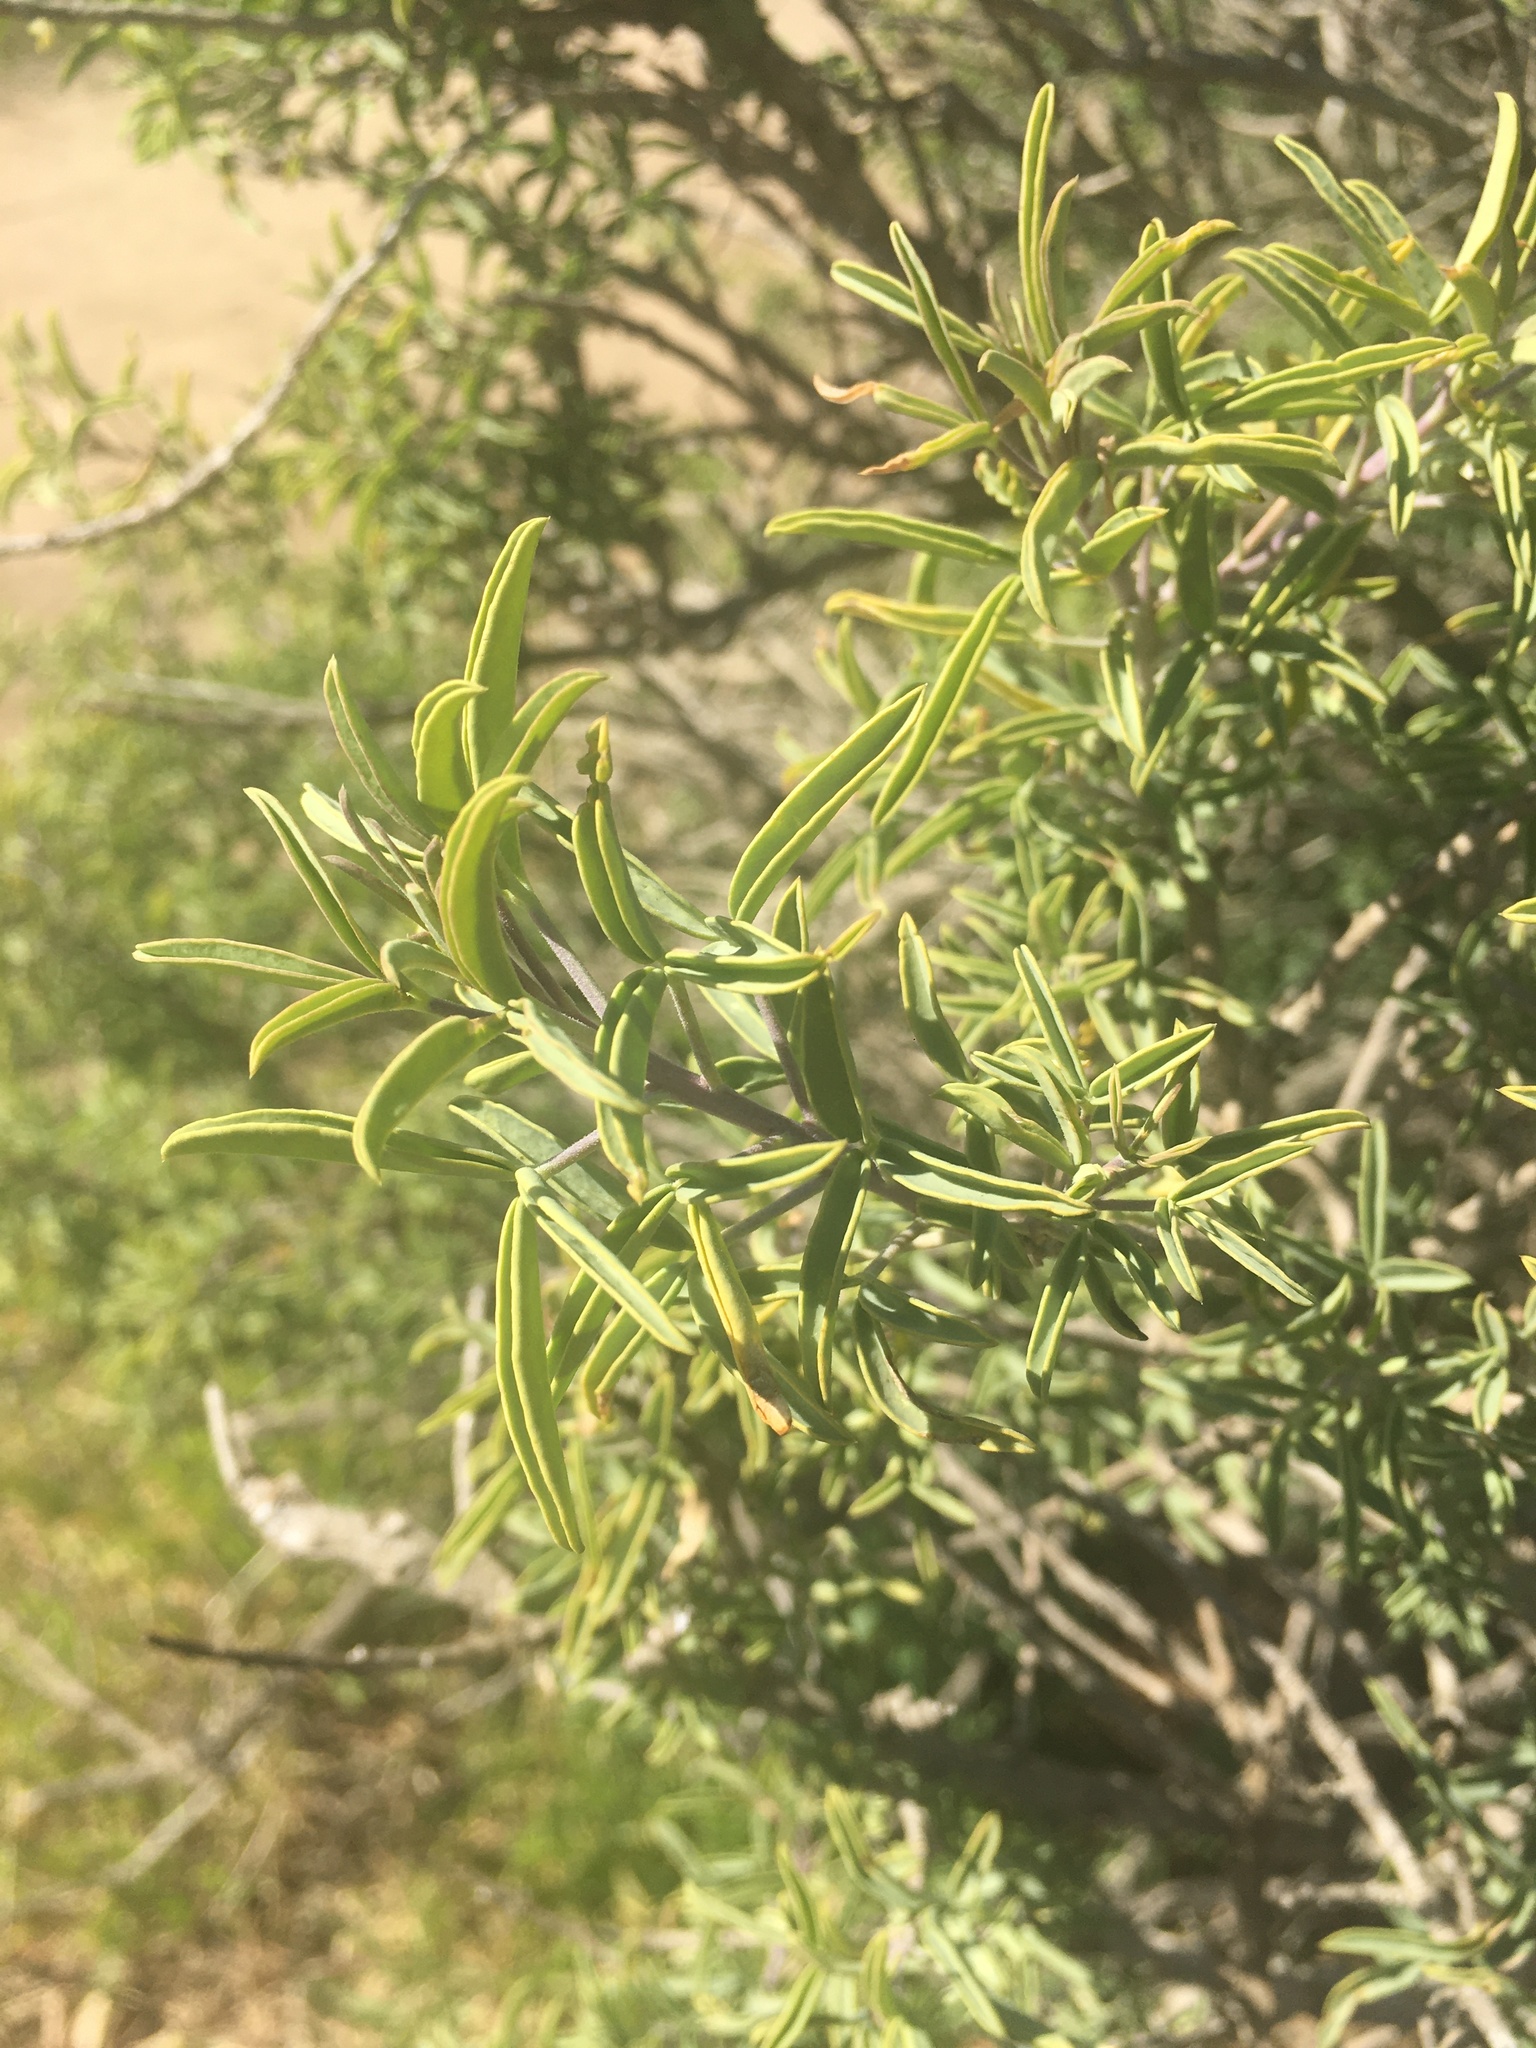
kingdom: Plantae
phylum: Tracheophyta
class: Magnoliopsida
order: Brassicales
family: Cleomaceae
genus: Cleomella
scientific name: Cleomella arborea
